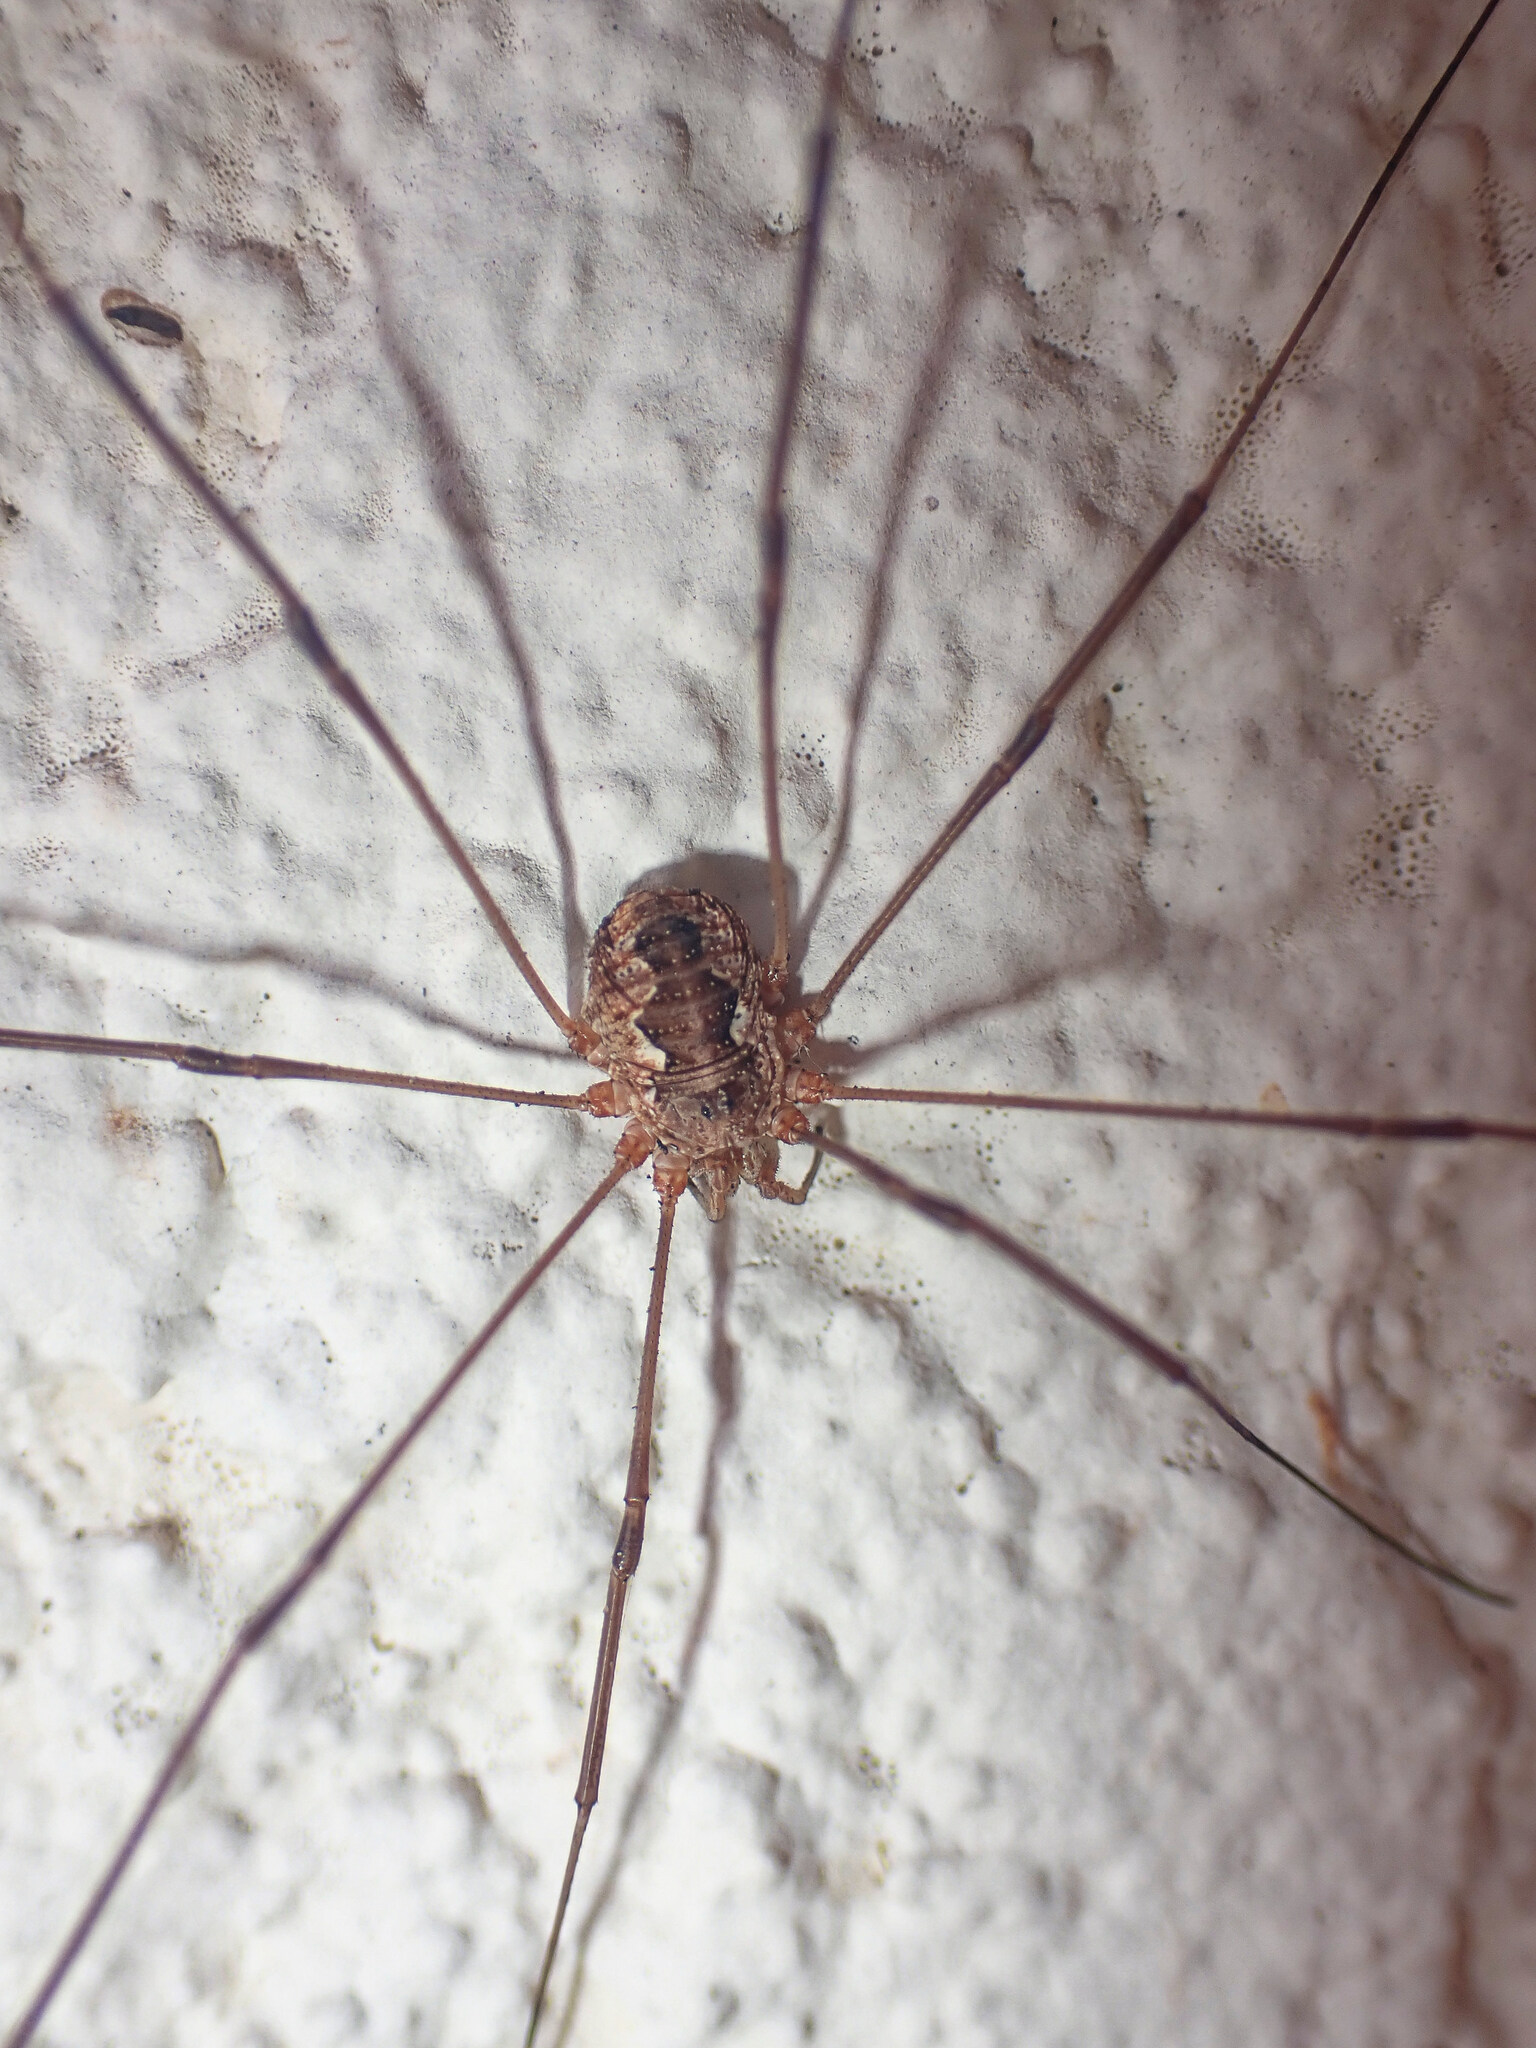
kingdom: Animalia
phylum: Arthropoda
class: Arachnida
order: Opiliones
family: Phalangiidae
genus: Phalangium
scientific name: Phalangium opilio
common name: Daddy longleg
